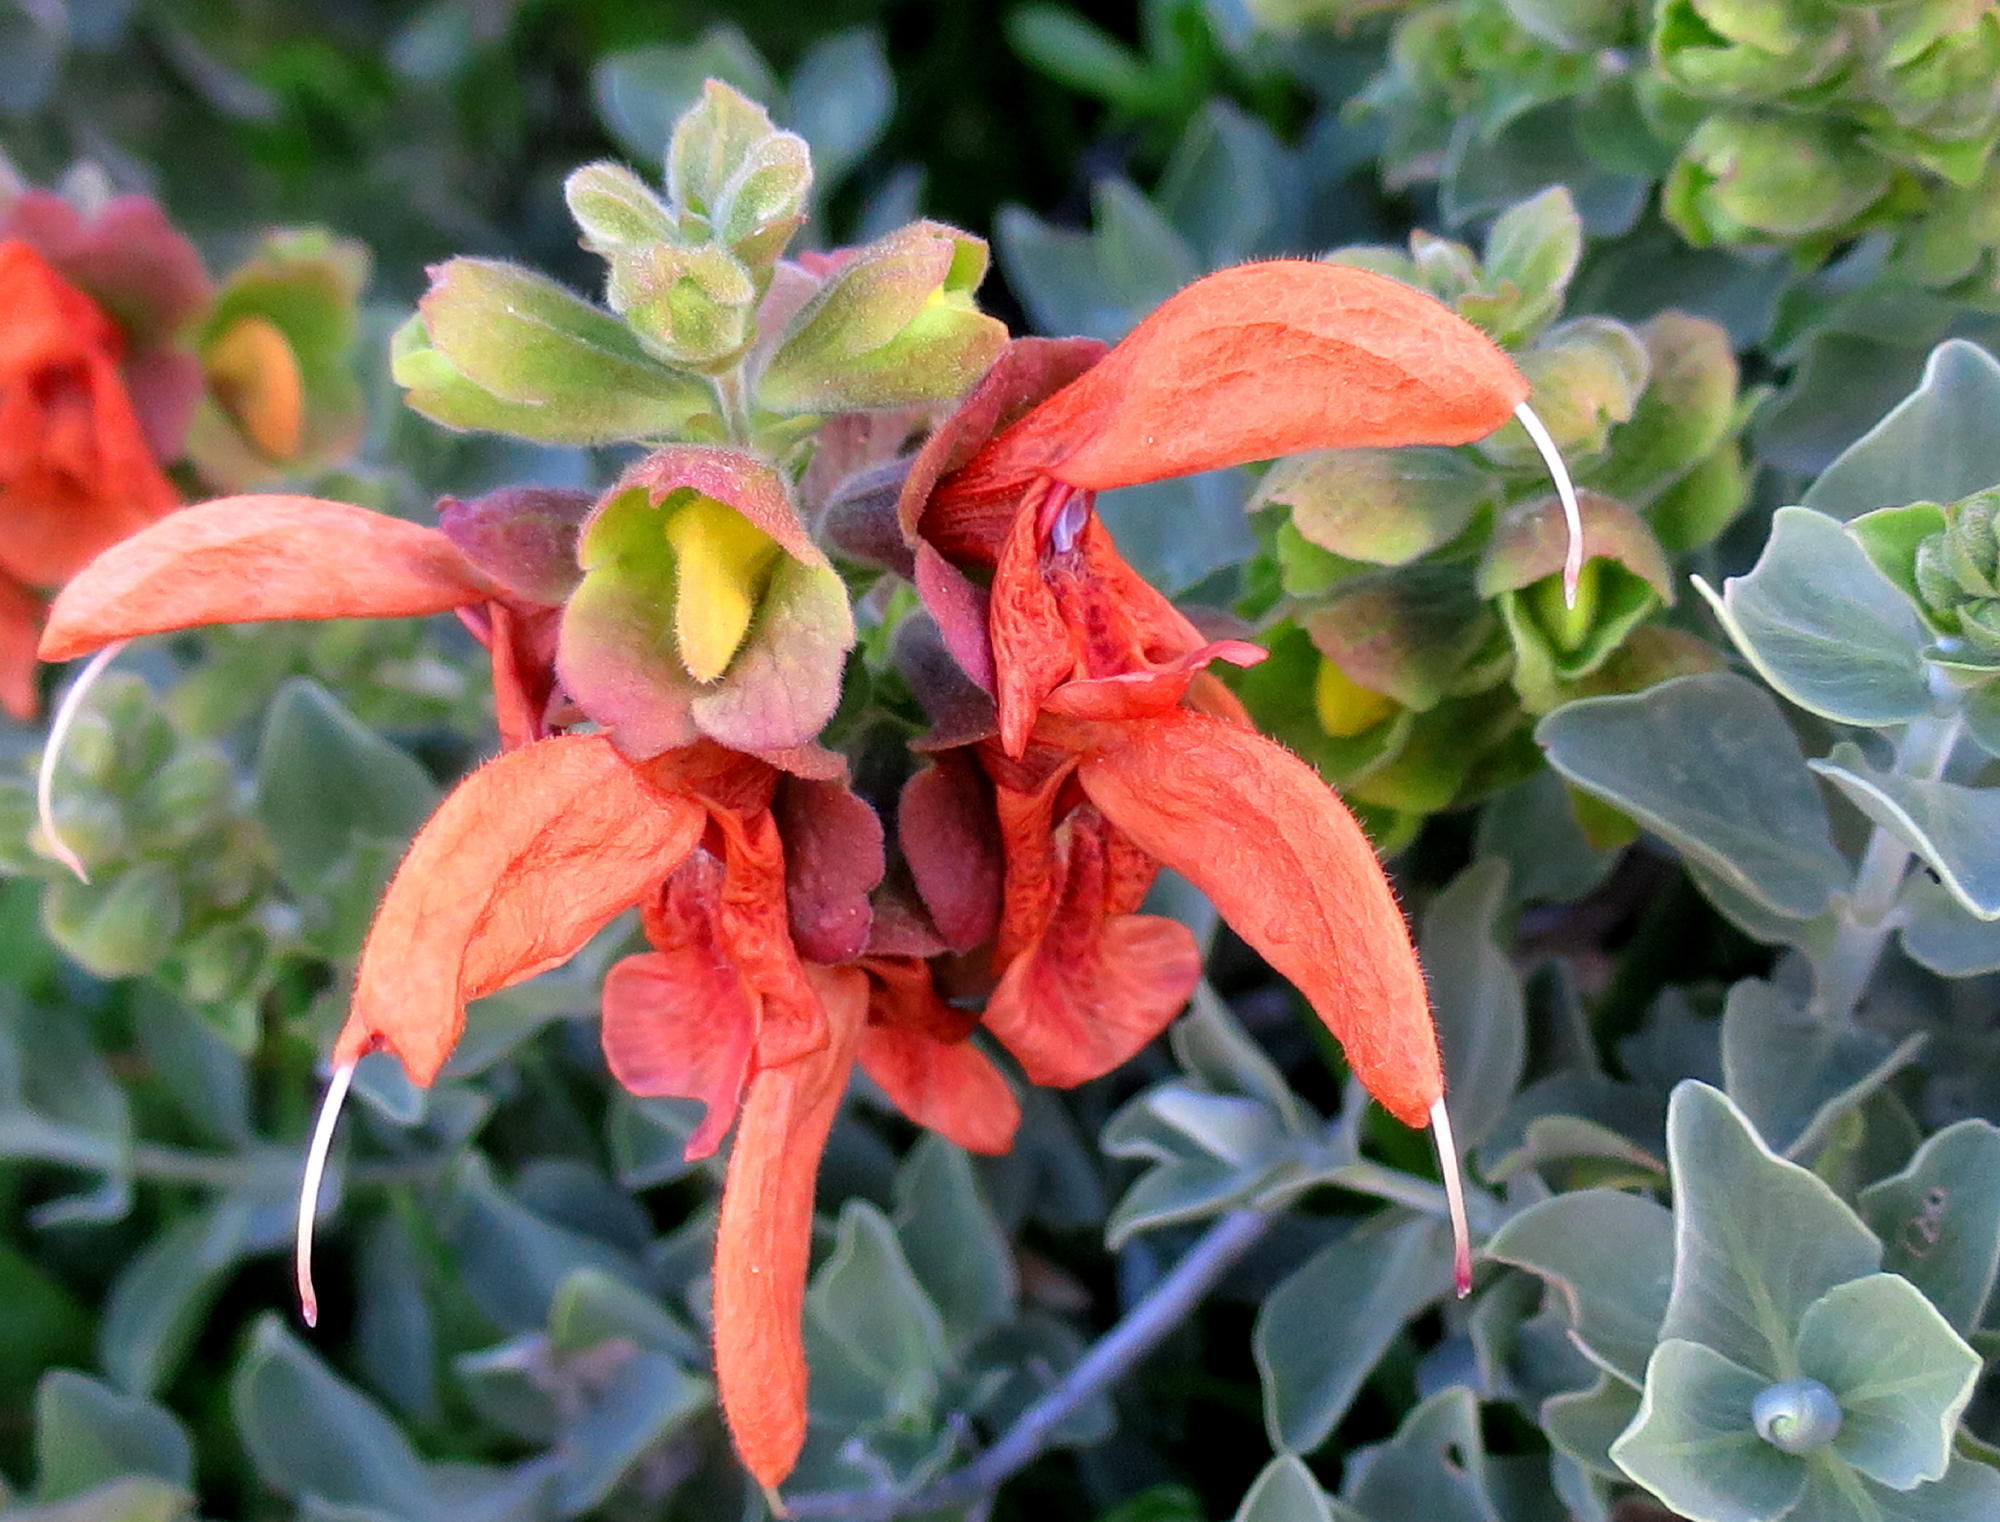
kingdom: Plantae
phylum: Tracheophyta
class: Magnoliopsida
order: Lamiales
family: Lamiaceae
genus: Salvia
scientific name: Salvia aurea
